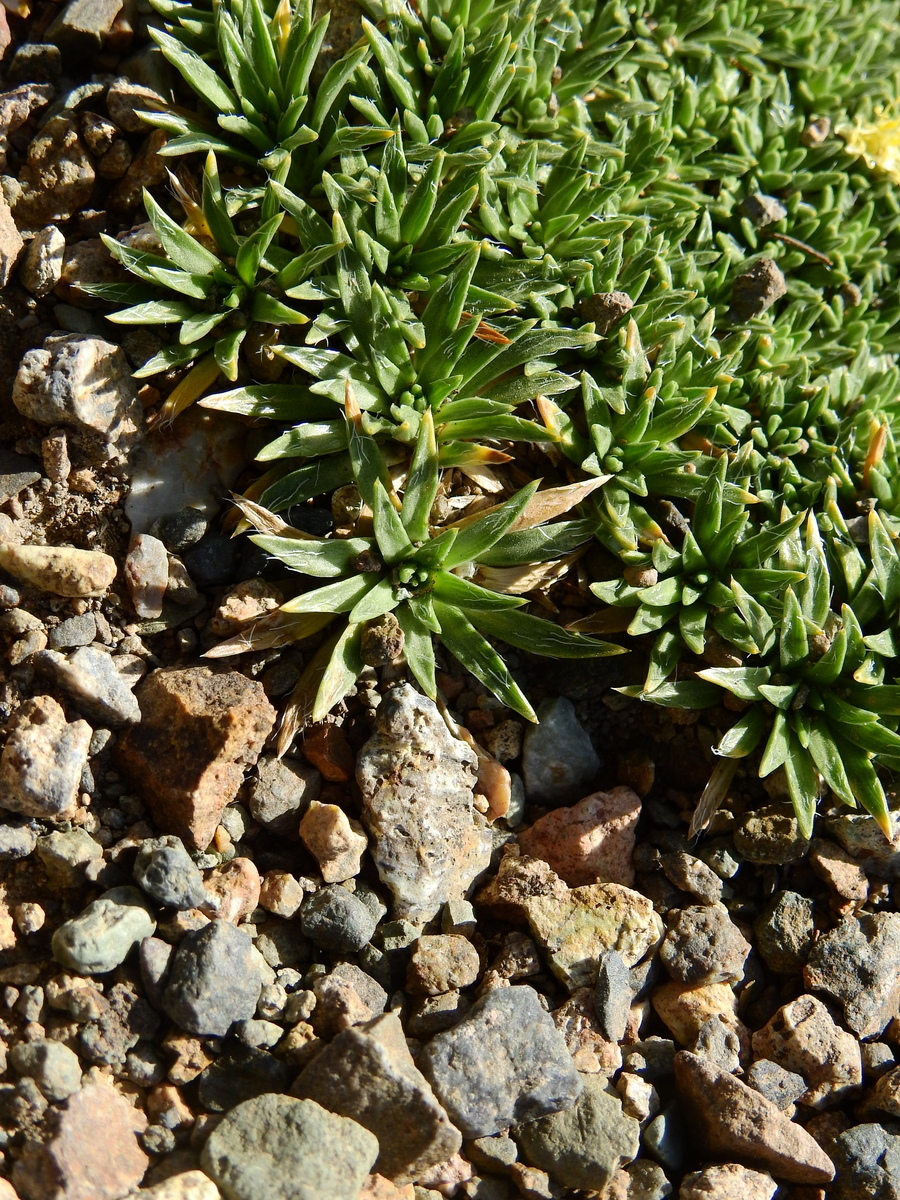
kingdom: Plantae
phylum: Tracheophyta
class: Magnoliopsida
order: Apiales
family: Apiaceae
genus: Azorella
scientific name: Azorella monantha
